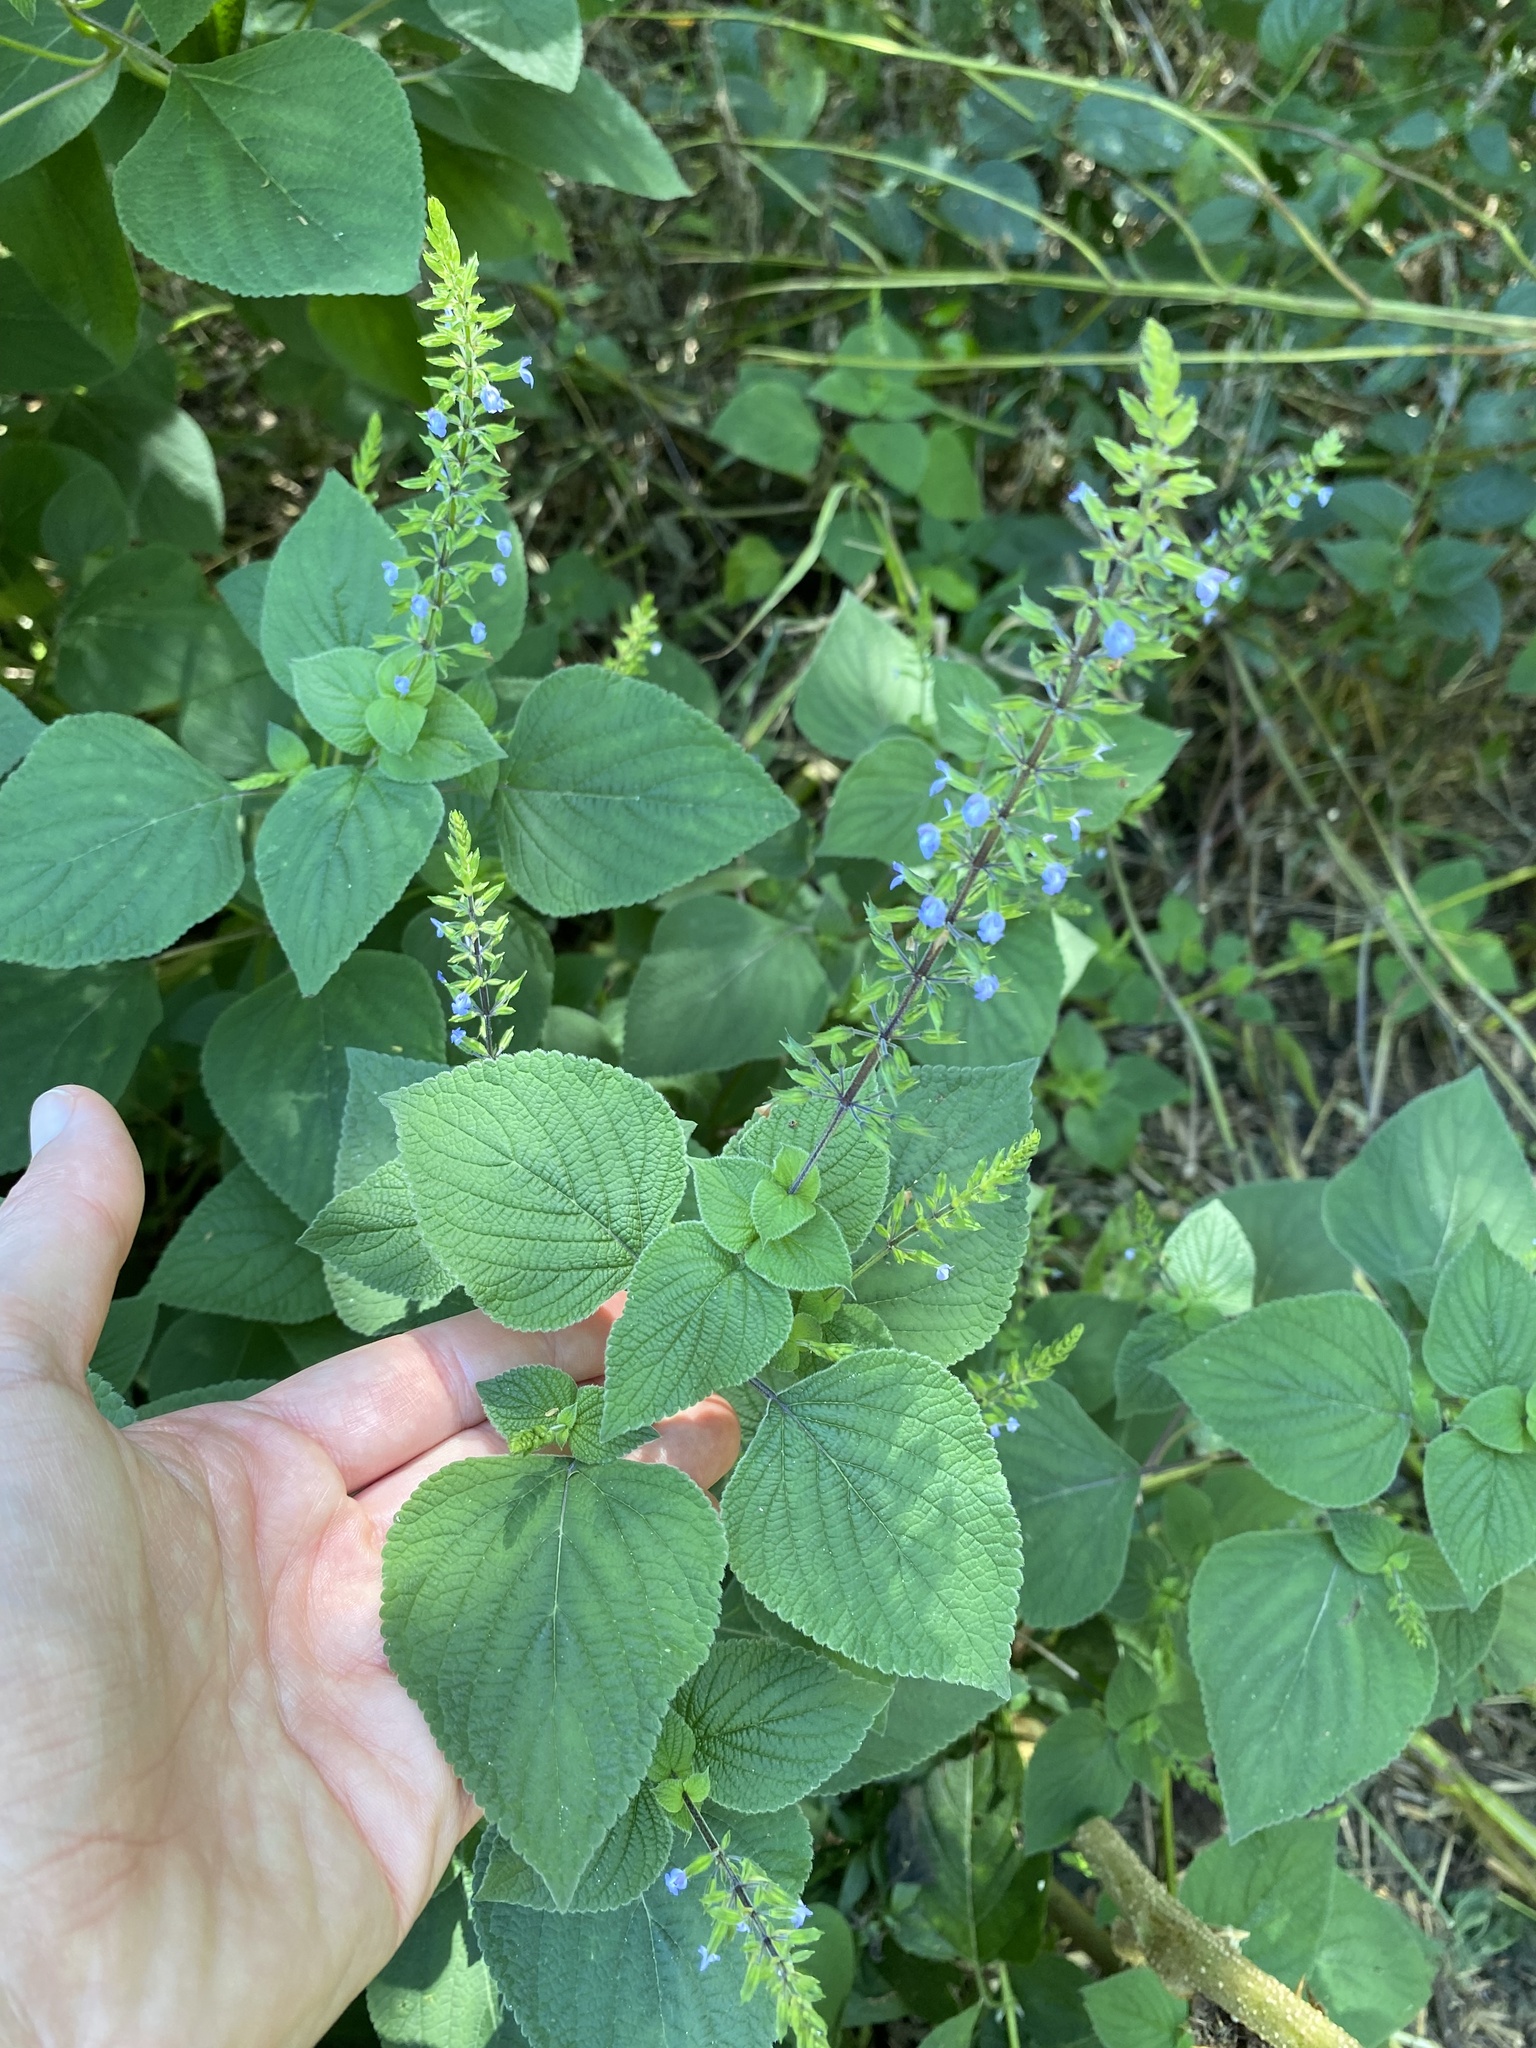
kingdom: Plantae
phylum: Tracheophyta
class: Magnoliopsida
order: Lamiales
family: Lamiaceae
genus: Salvia
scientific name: Salvia tiliifolia
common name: Lindenleaf sage
